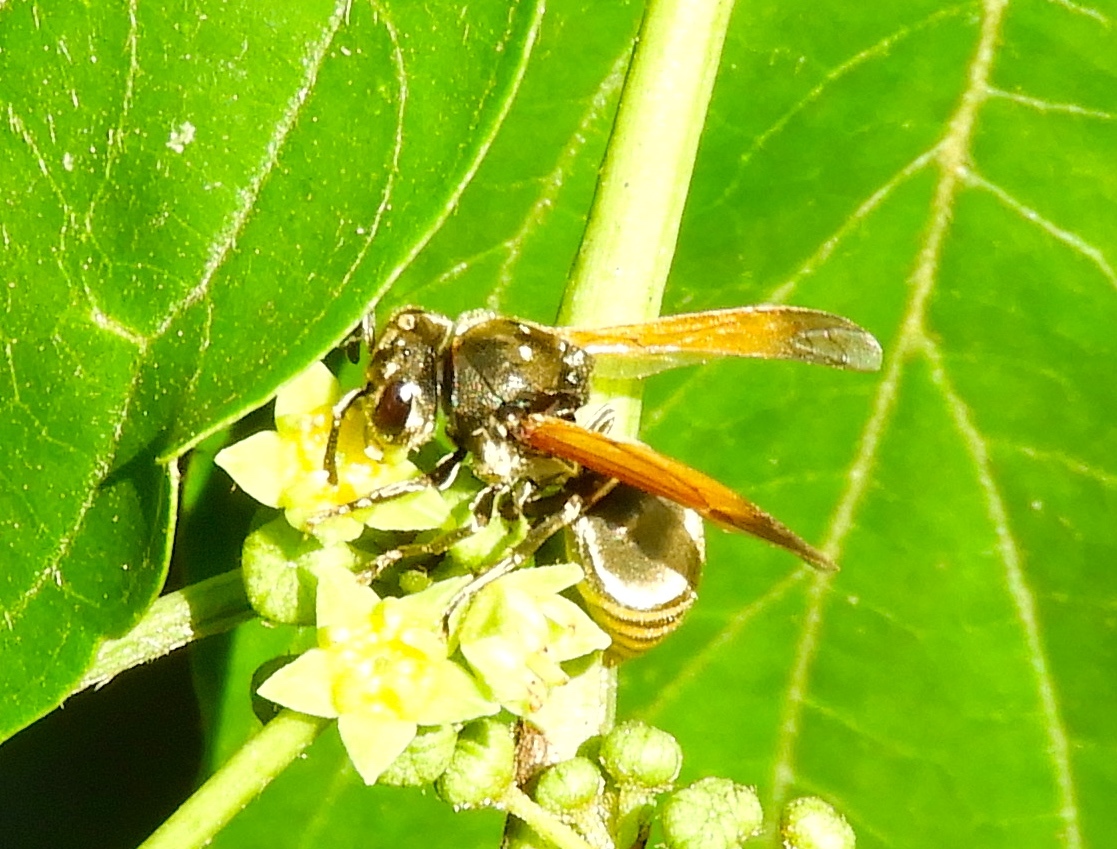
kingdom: Animalia
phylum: Arthropoda
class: Insecta
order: Hymenoptera
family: Vespidae
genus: Brachygastra
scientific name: Brachygastra mellifica
